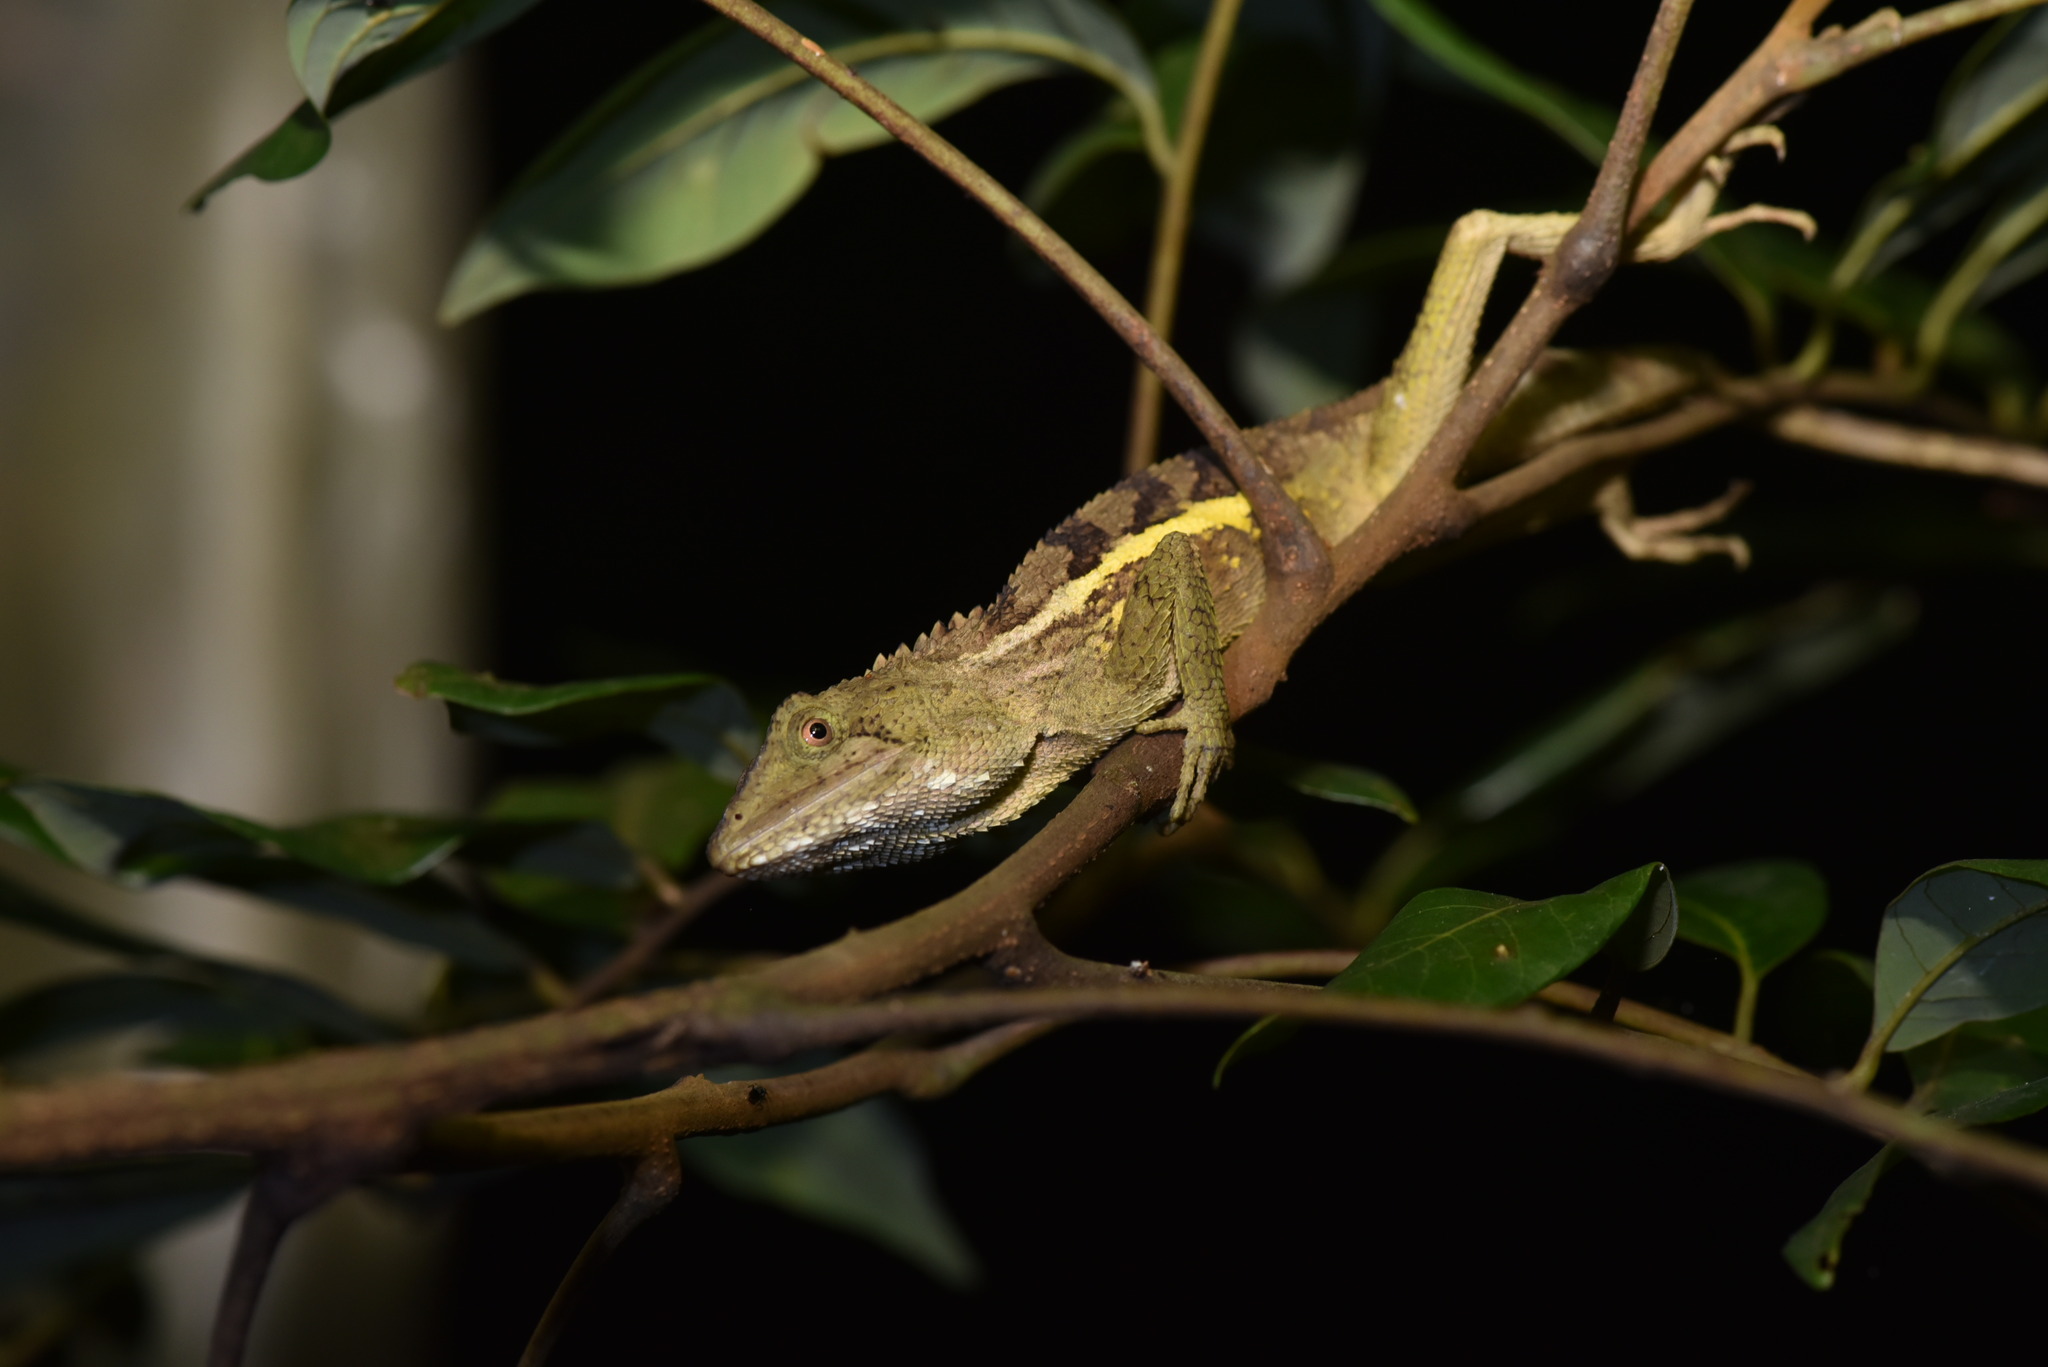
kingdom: Animalia
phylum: Chordata
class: Squamata
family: Agamidae
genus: Diploderma
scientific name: Diploderma swinhonis
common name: Taiwan japalure
